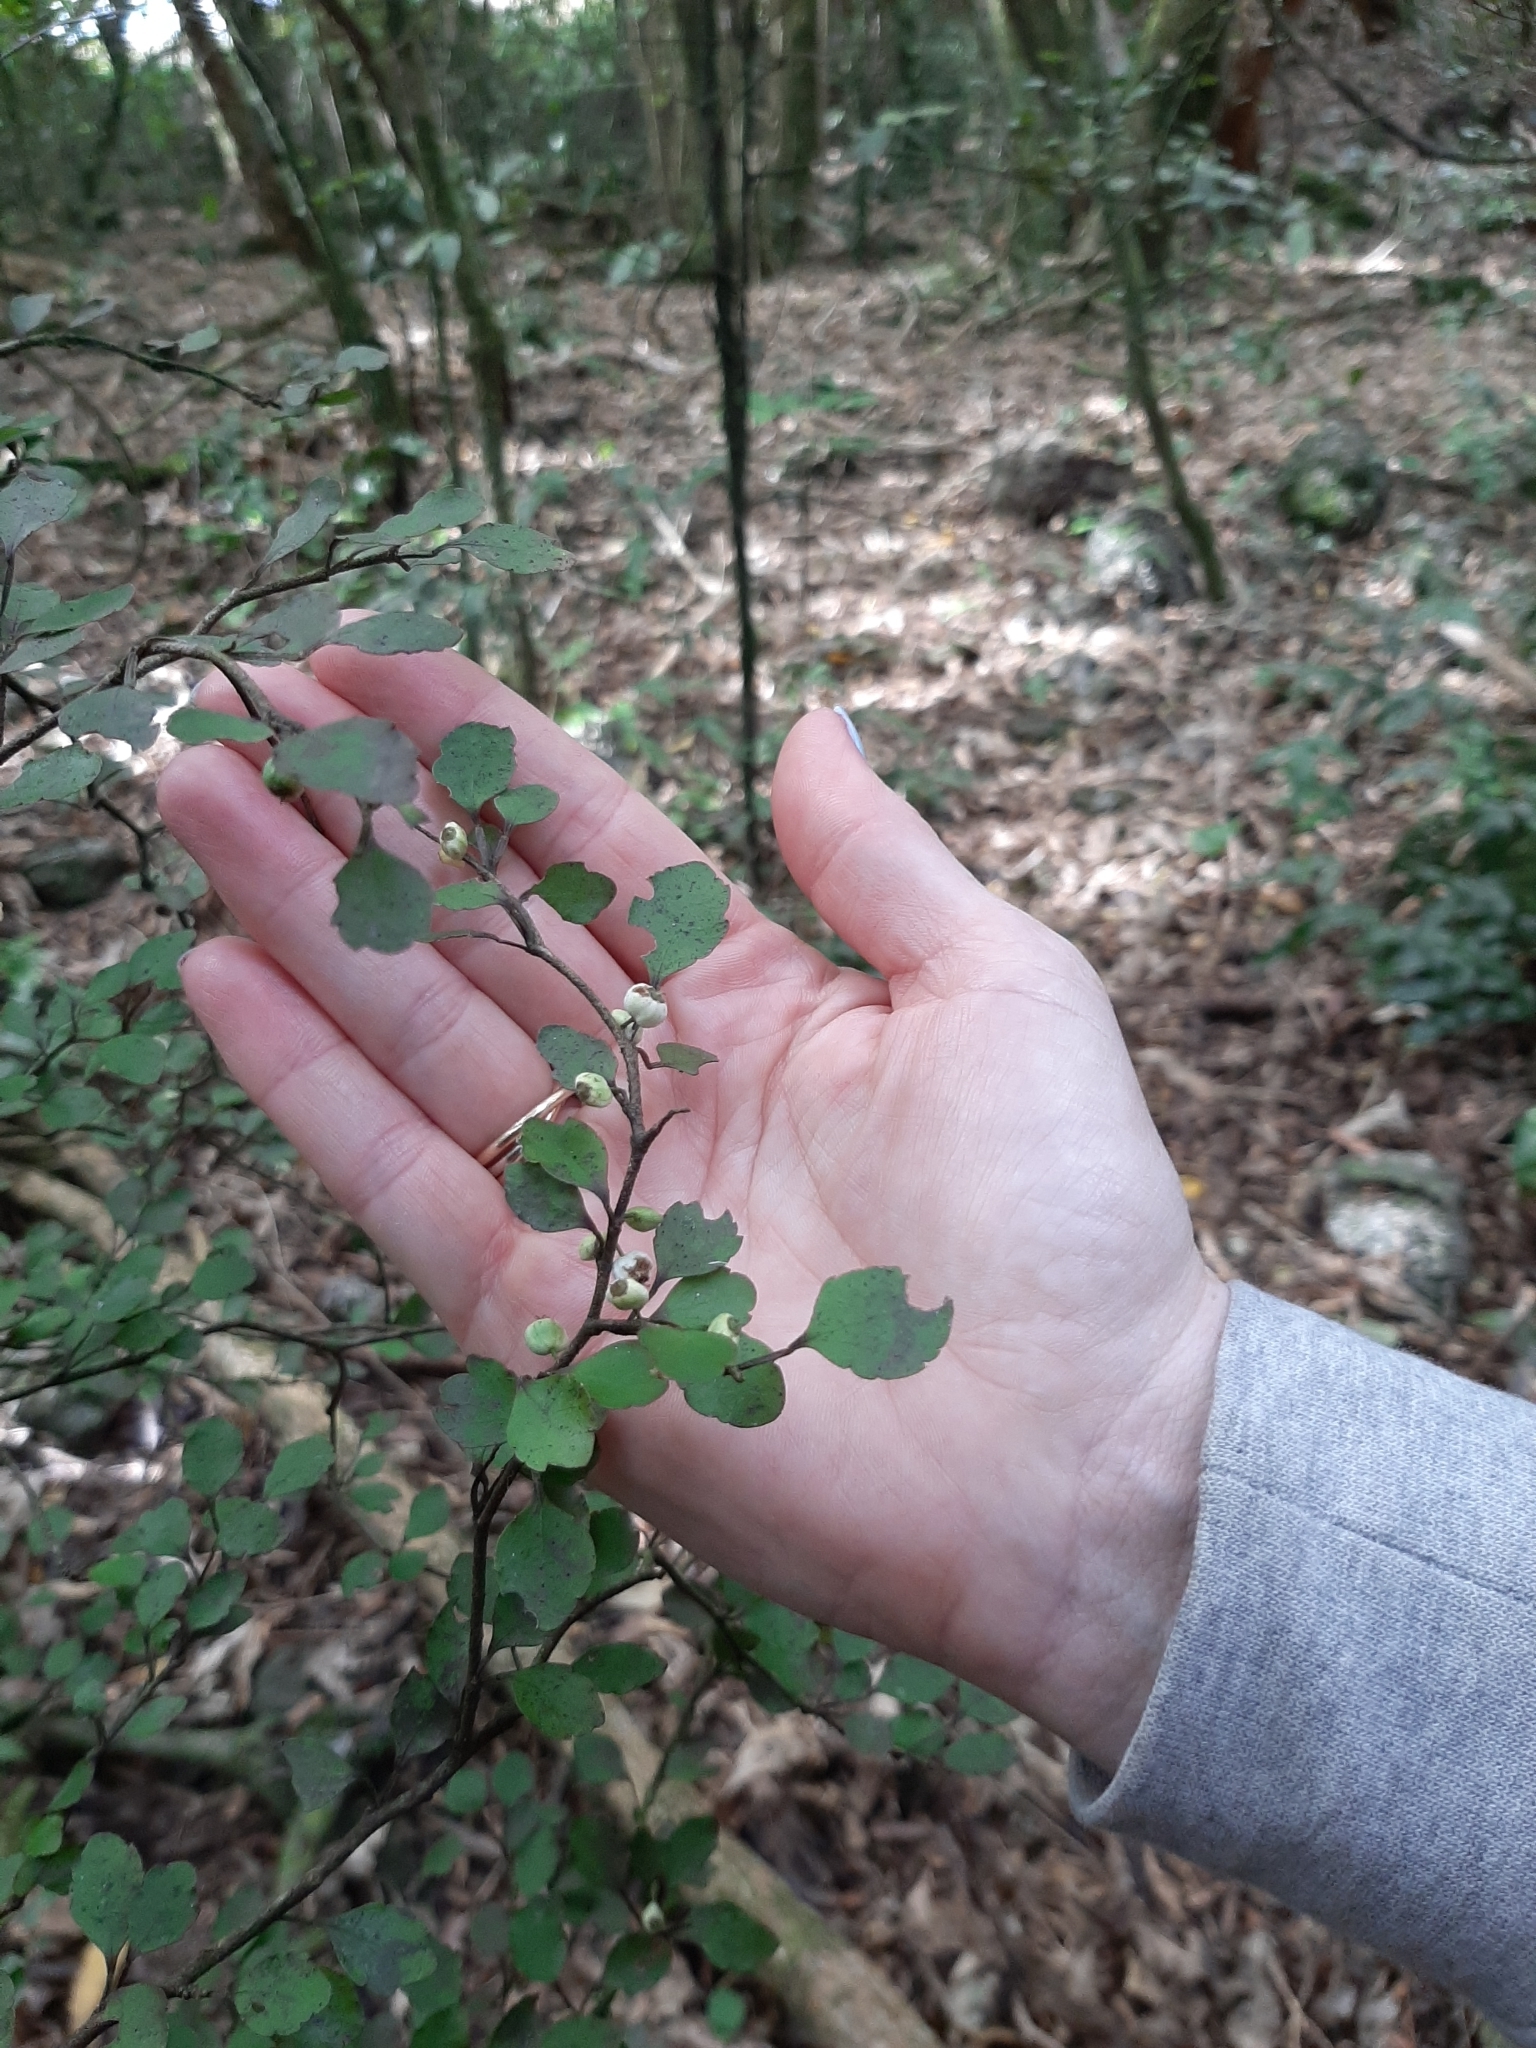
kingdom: Plantae
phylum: Tracheophyta
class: Magnoliopsida
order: Apiales
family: Araliaceae
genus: Raukaua
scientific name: Raukaua anomalus
